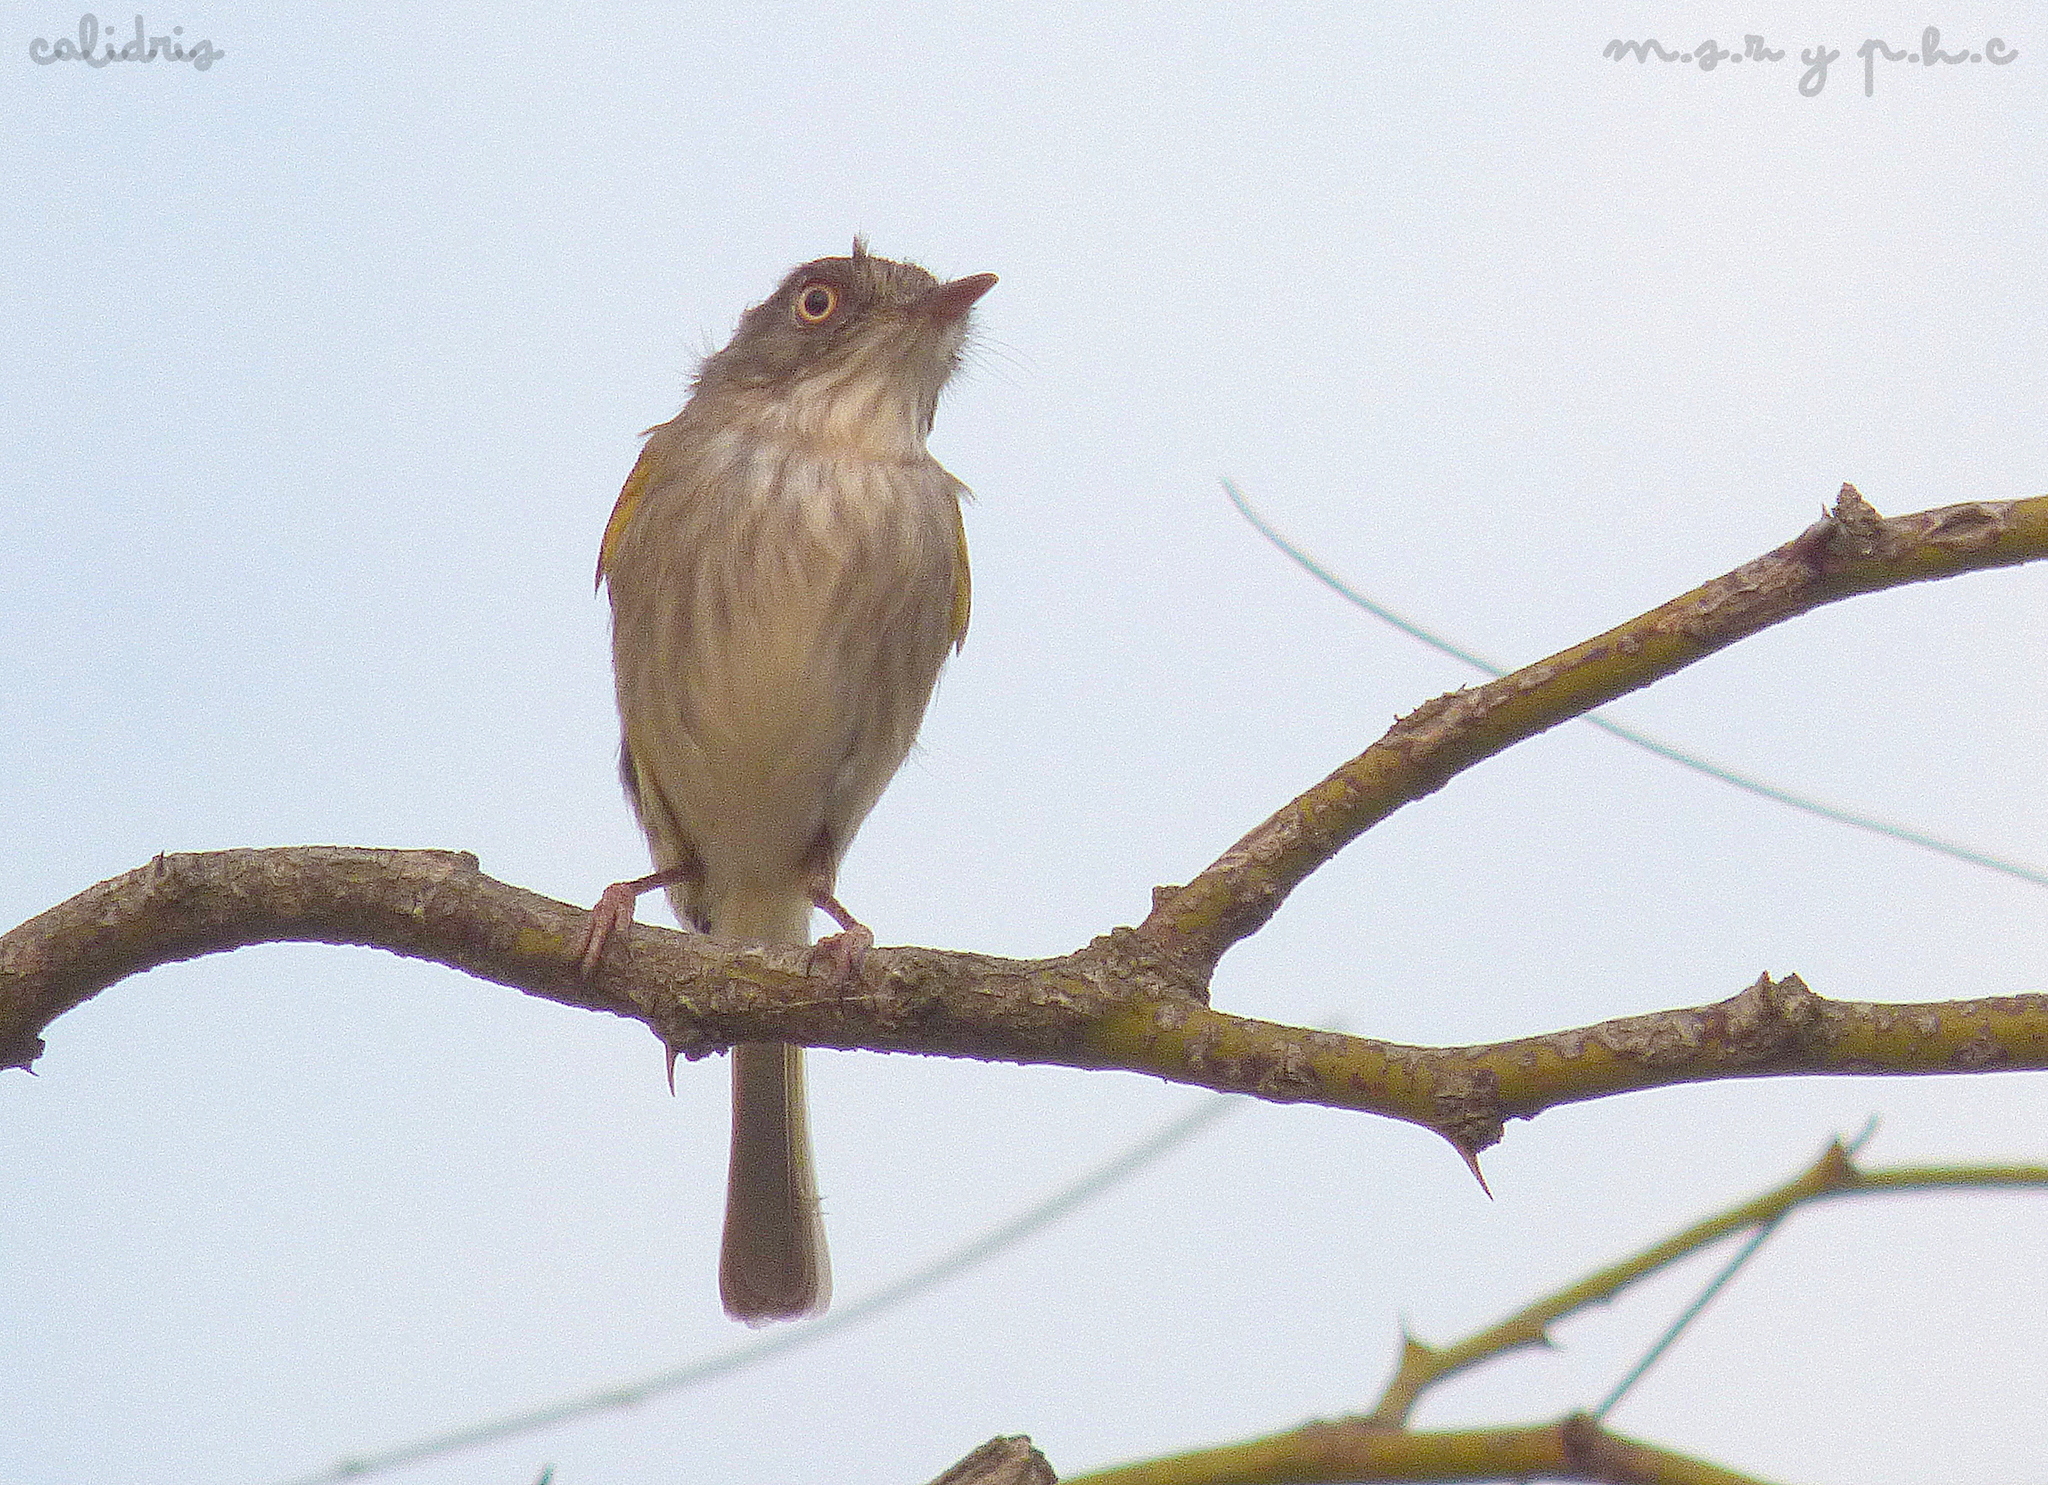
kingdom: Animalia
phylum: Chordata
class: Aves
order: Passeriformes
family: Tyrannidae
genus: Hemitriccus
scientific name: Hemitriccus margaritaceiventer
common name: Pearly-vented tody-tyrant
